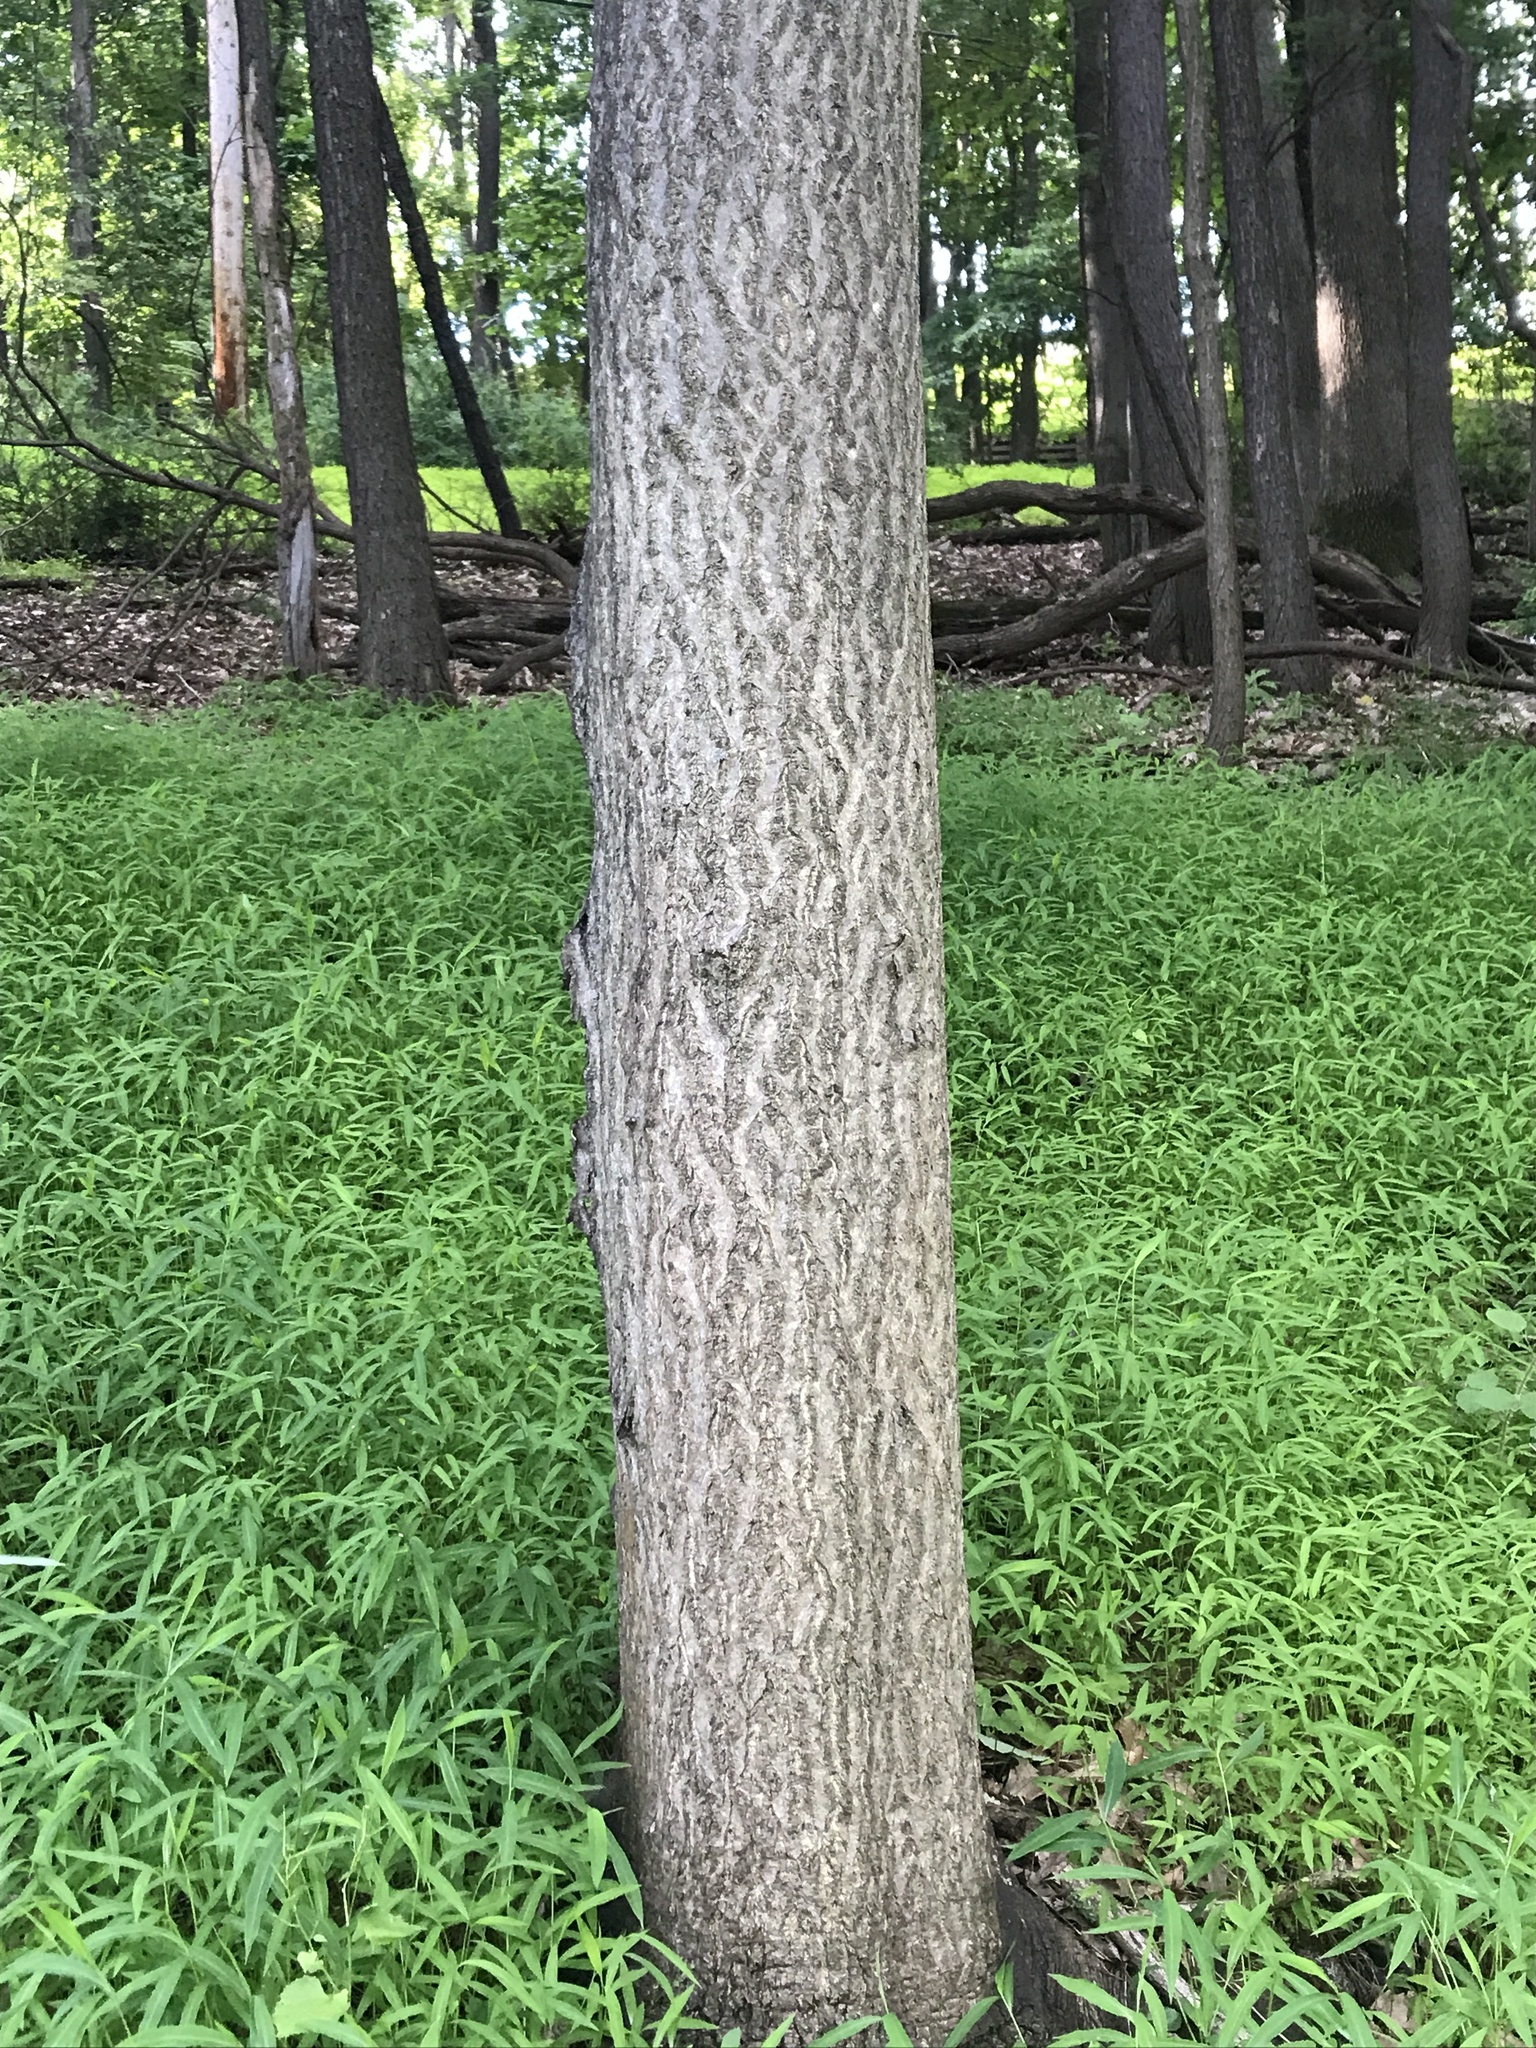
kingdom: Plantae
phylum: Tracheophyta
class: Magnoliopsida
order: Sapindales
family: Simaroubaceae
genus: Ailanthus
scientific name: Ailanthus altissima
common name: Tree-of-heaven
